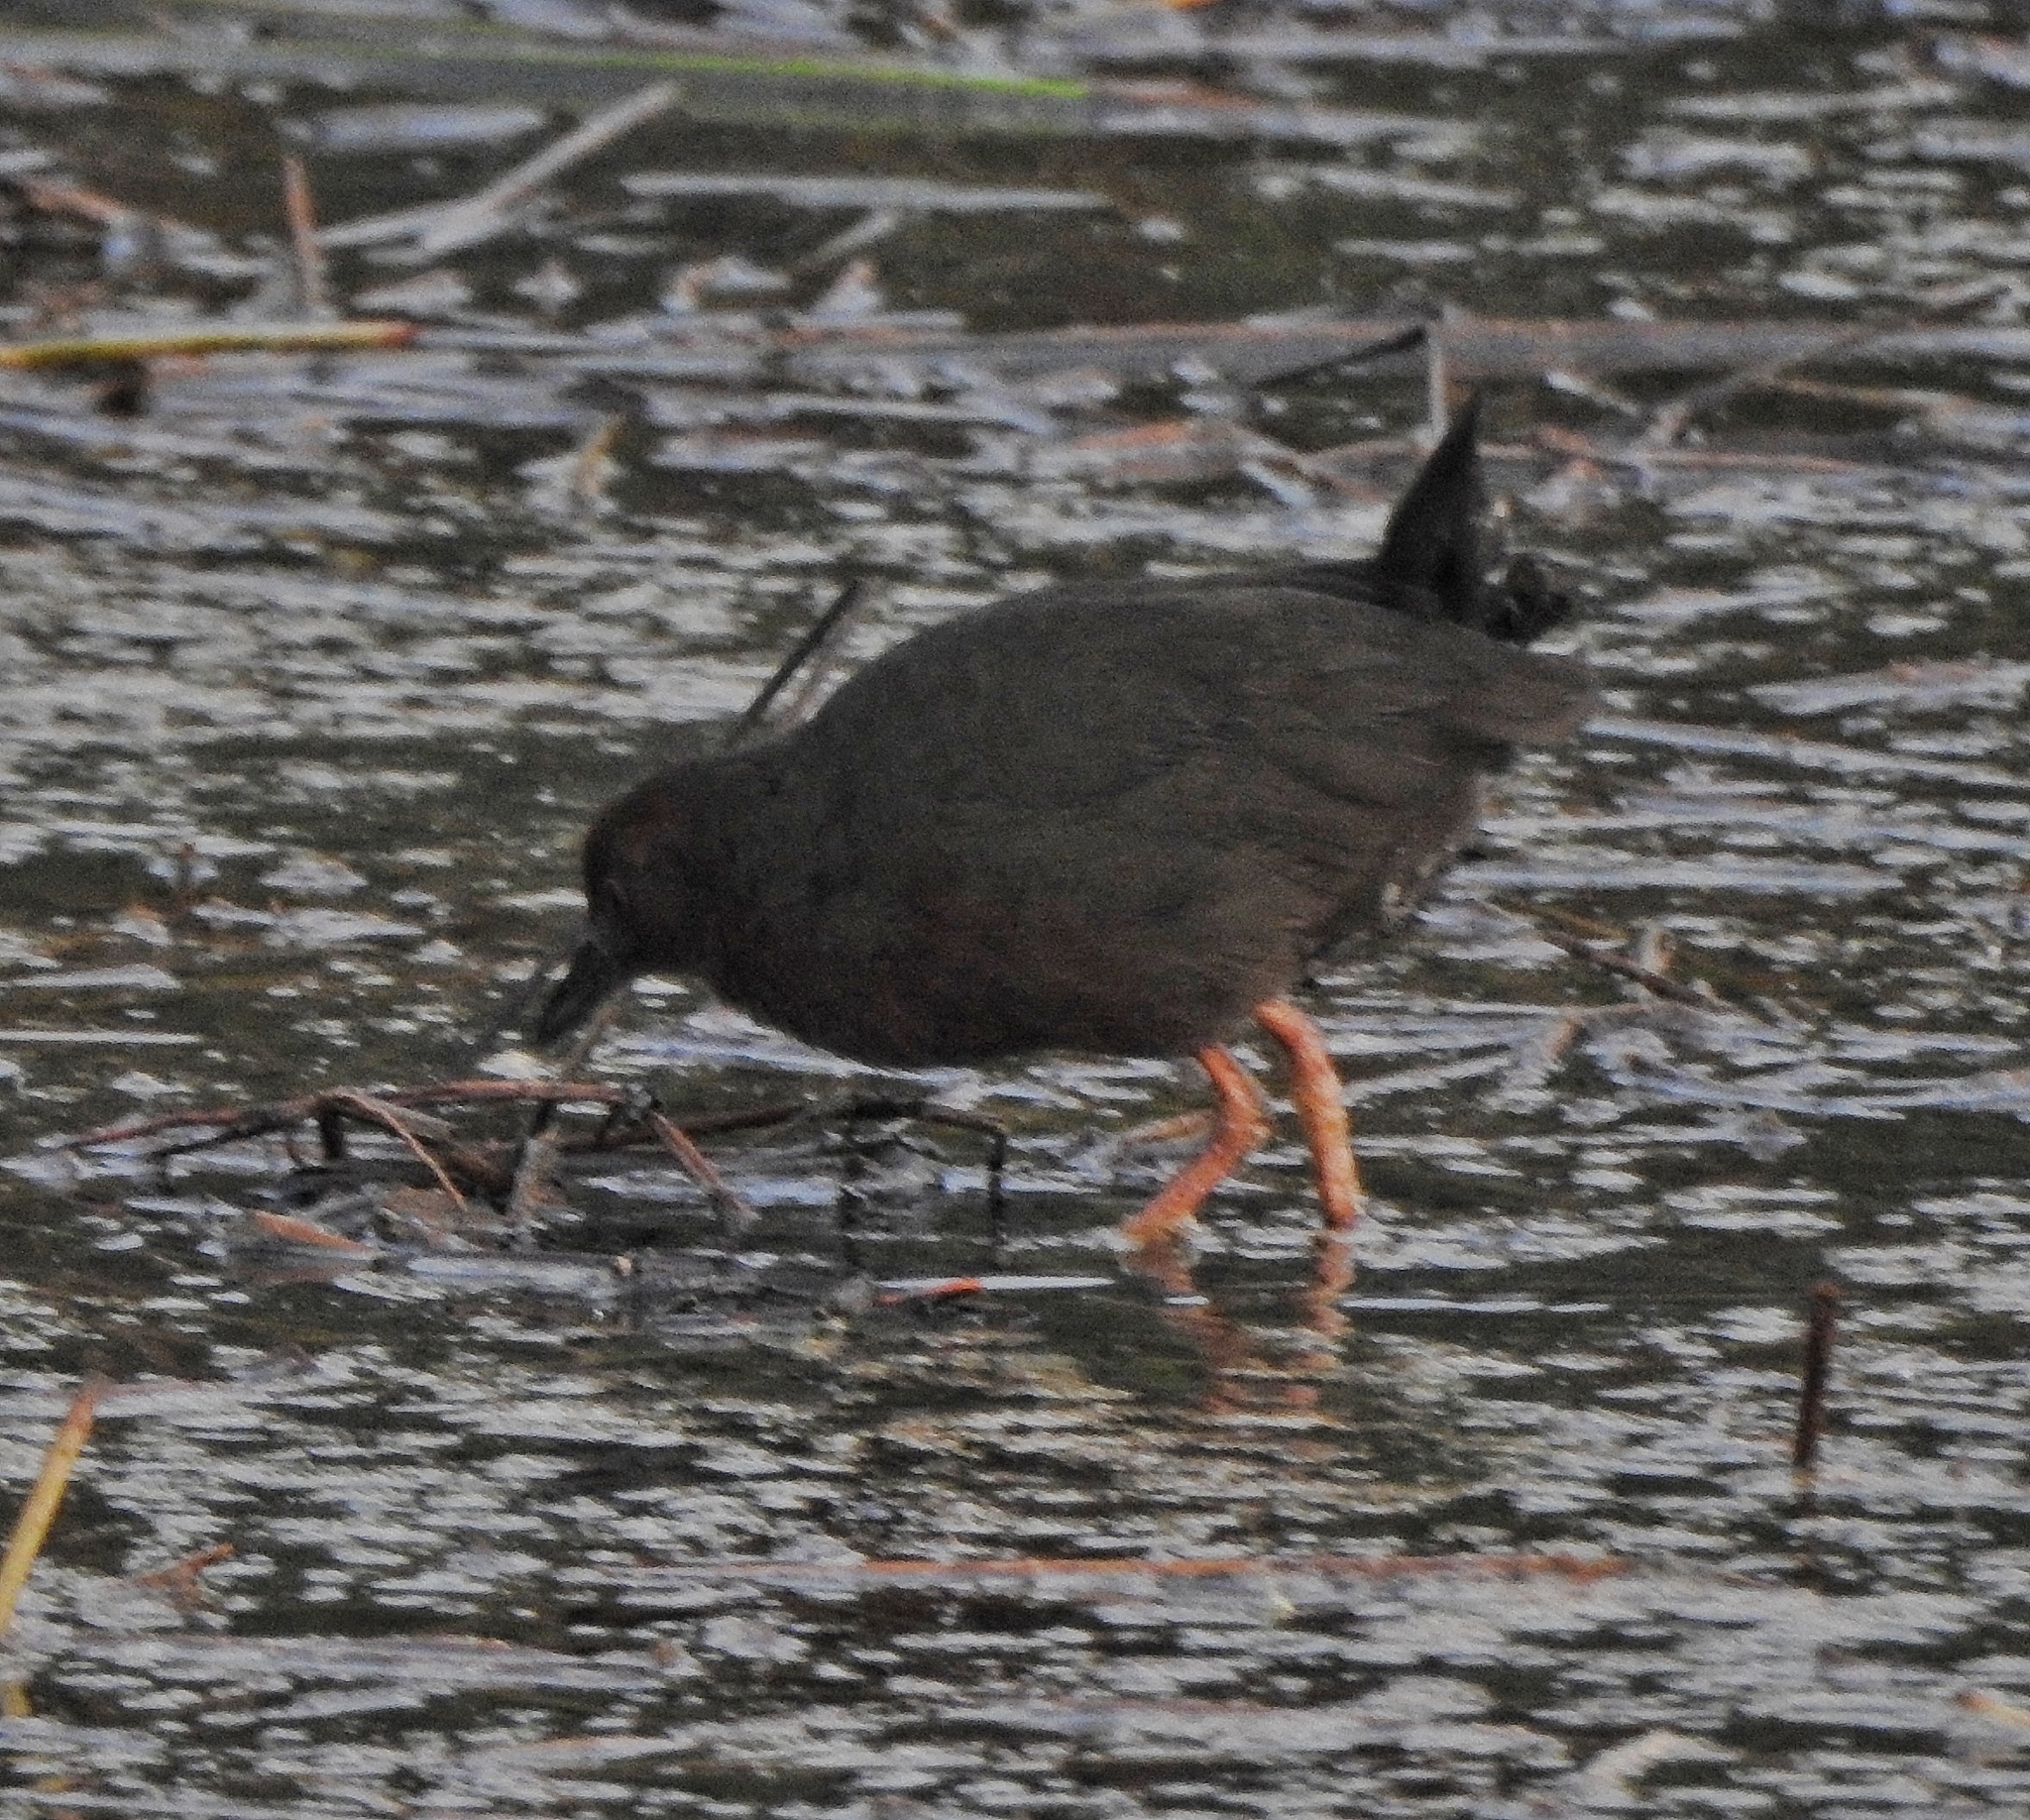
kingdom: Animalia
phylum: Chordata
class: Aves
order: Gruiformes
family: Rallidae
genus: Porzana
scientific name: Porzana fusca
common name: Ruddy-breasted crake
